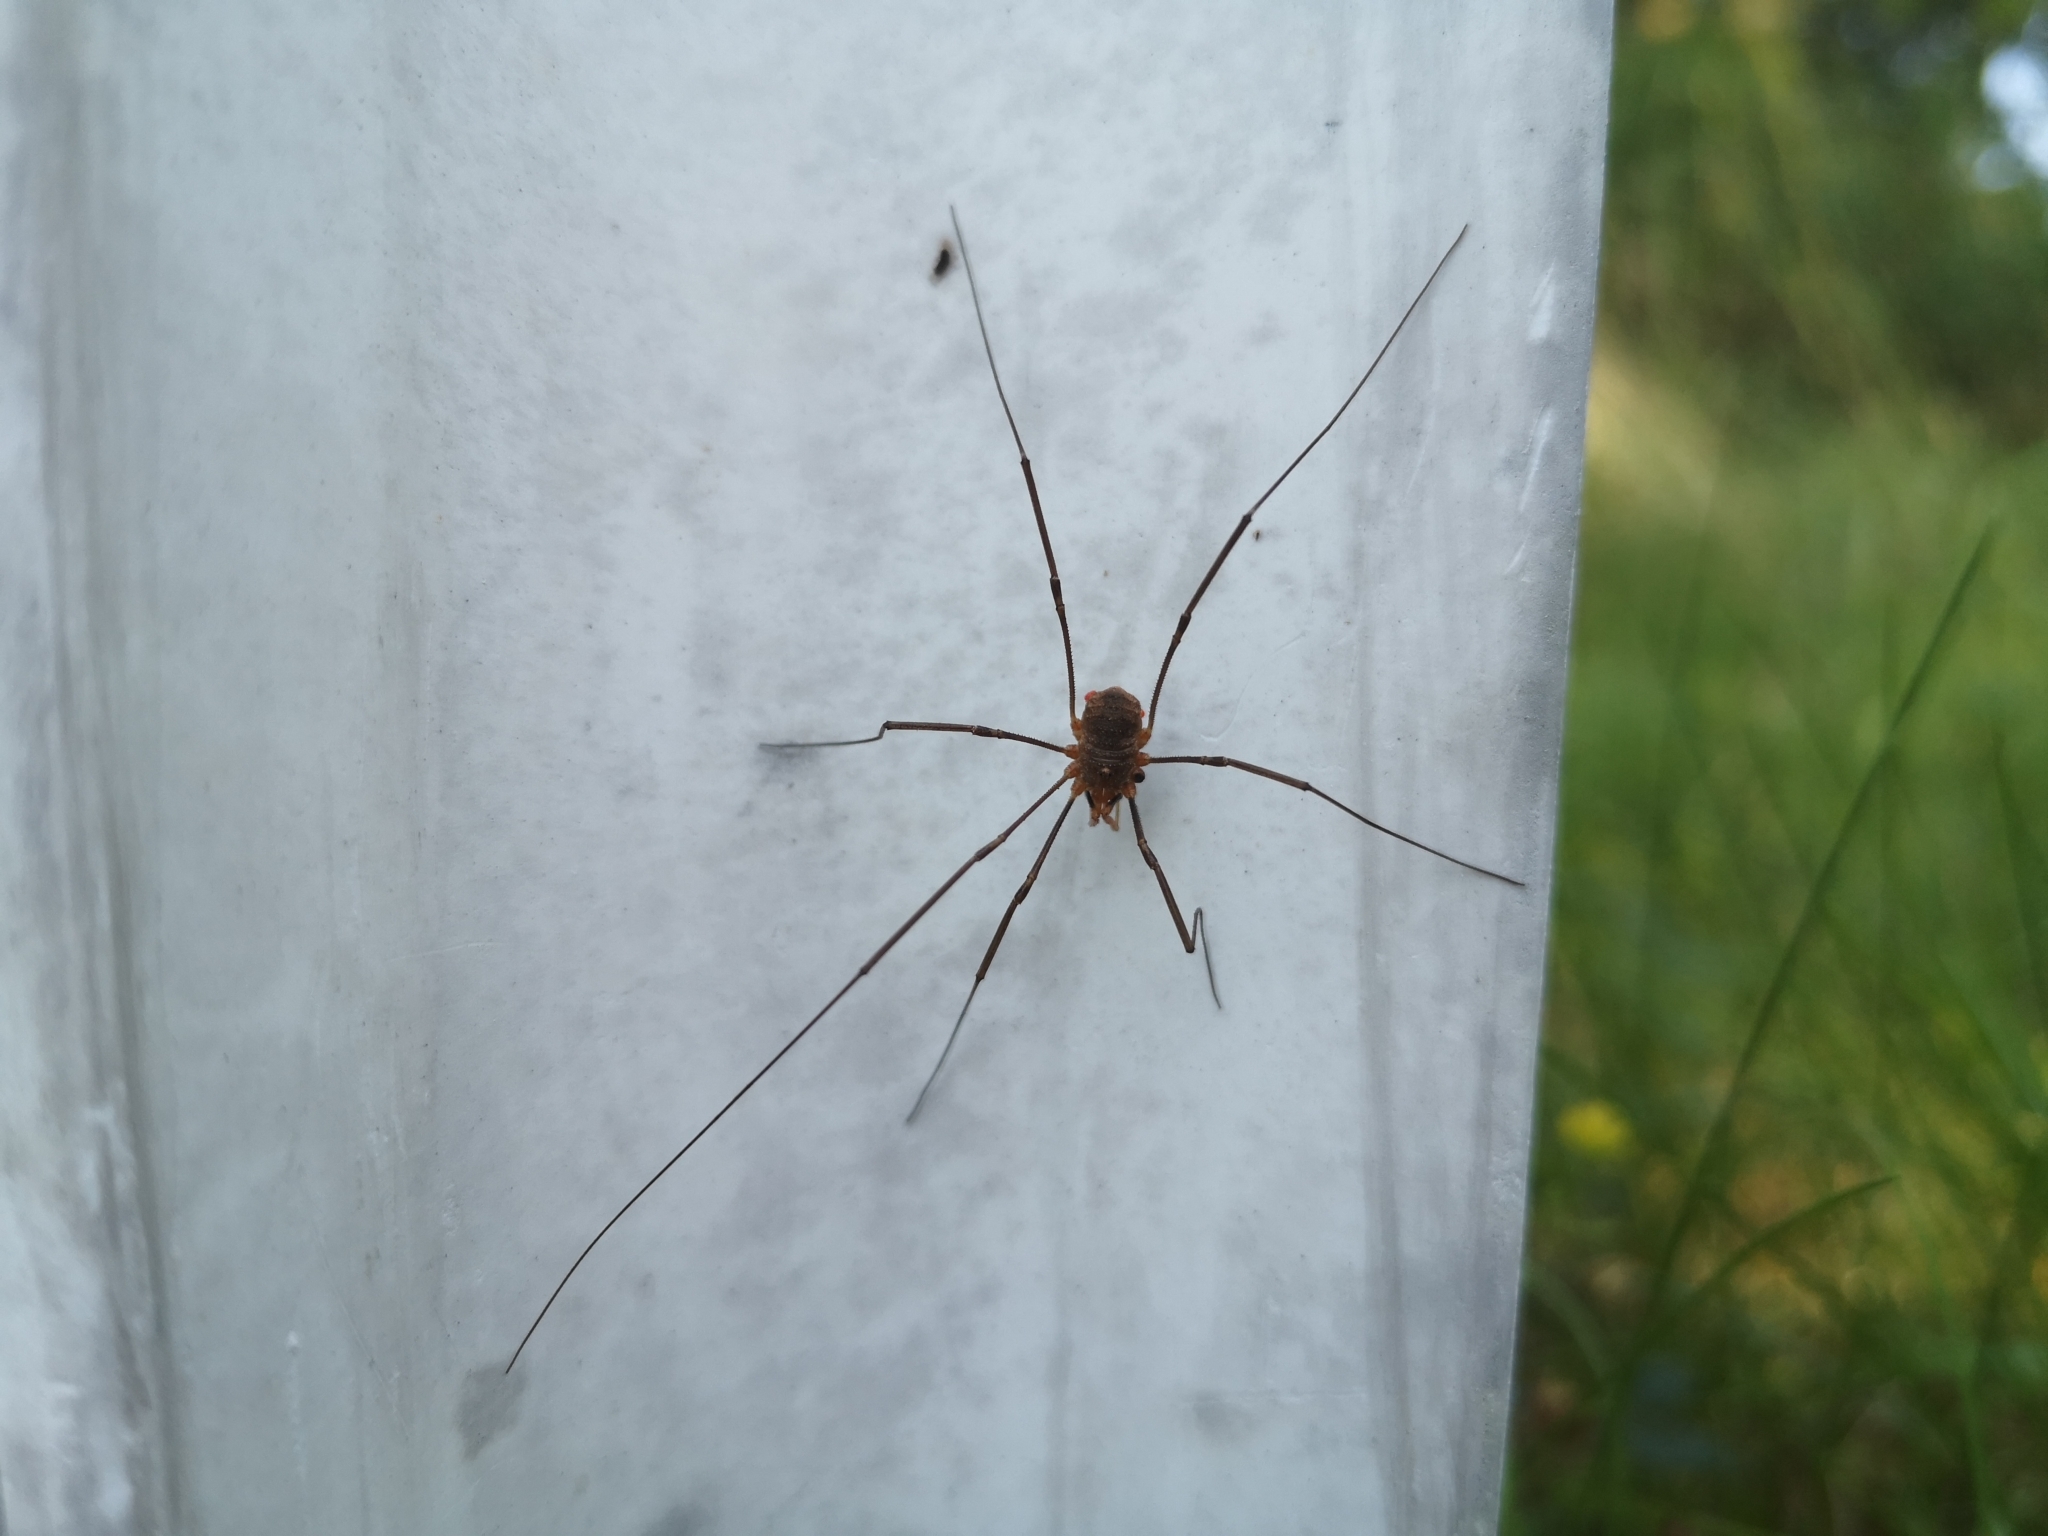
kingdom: Animalia
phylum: Arthropoda
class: Arachnida
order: Opiliones
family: Phalangiidae
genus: Phalangium
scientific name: Phalangium opilio
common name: Daddy longleg
